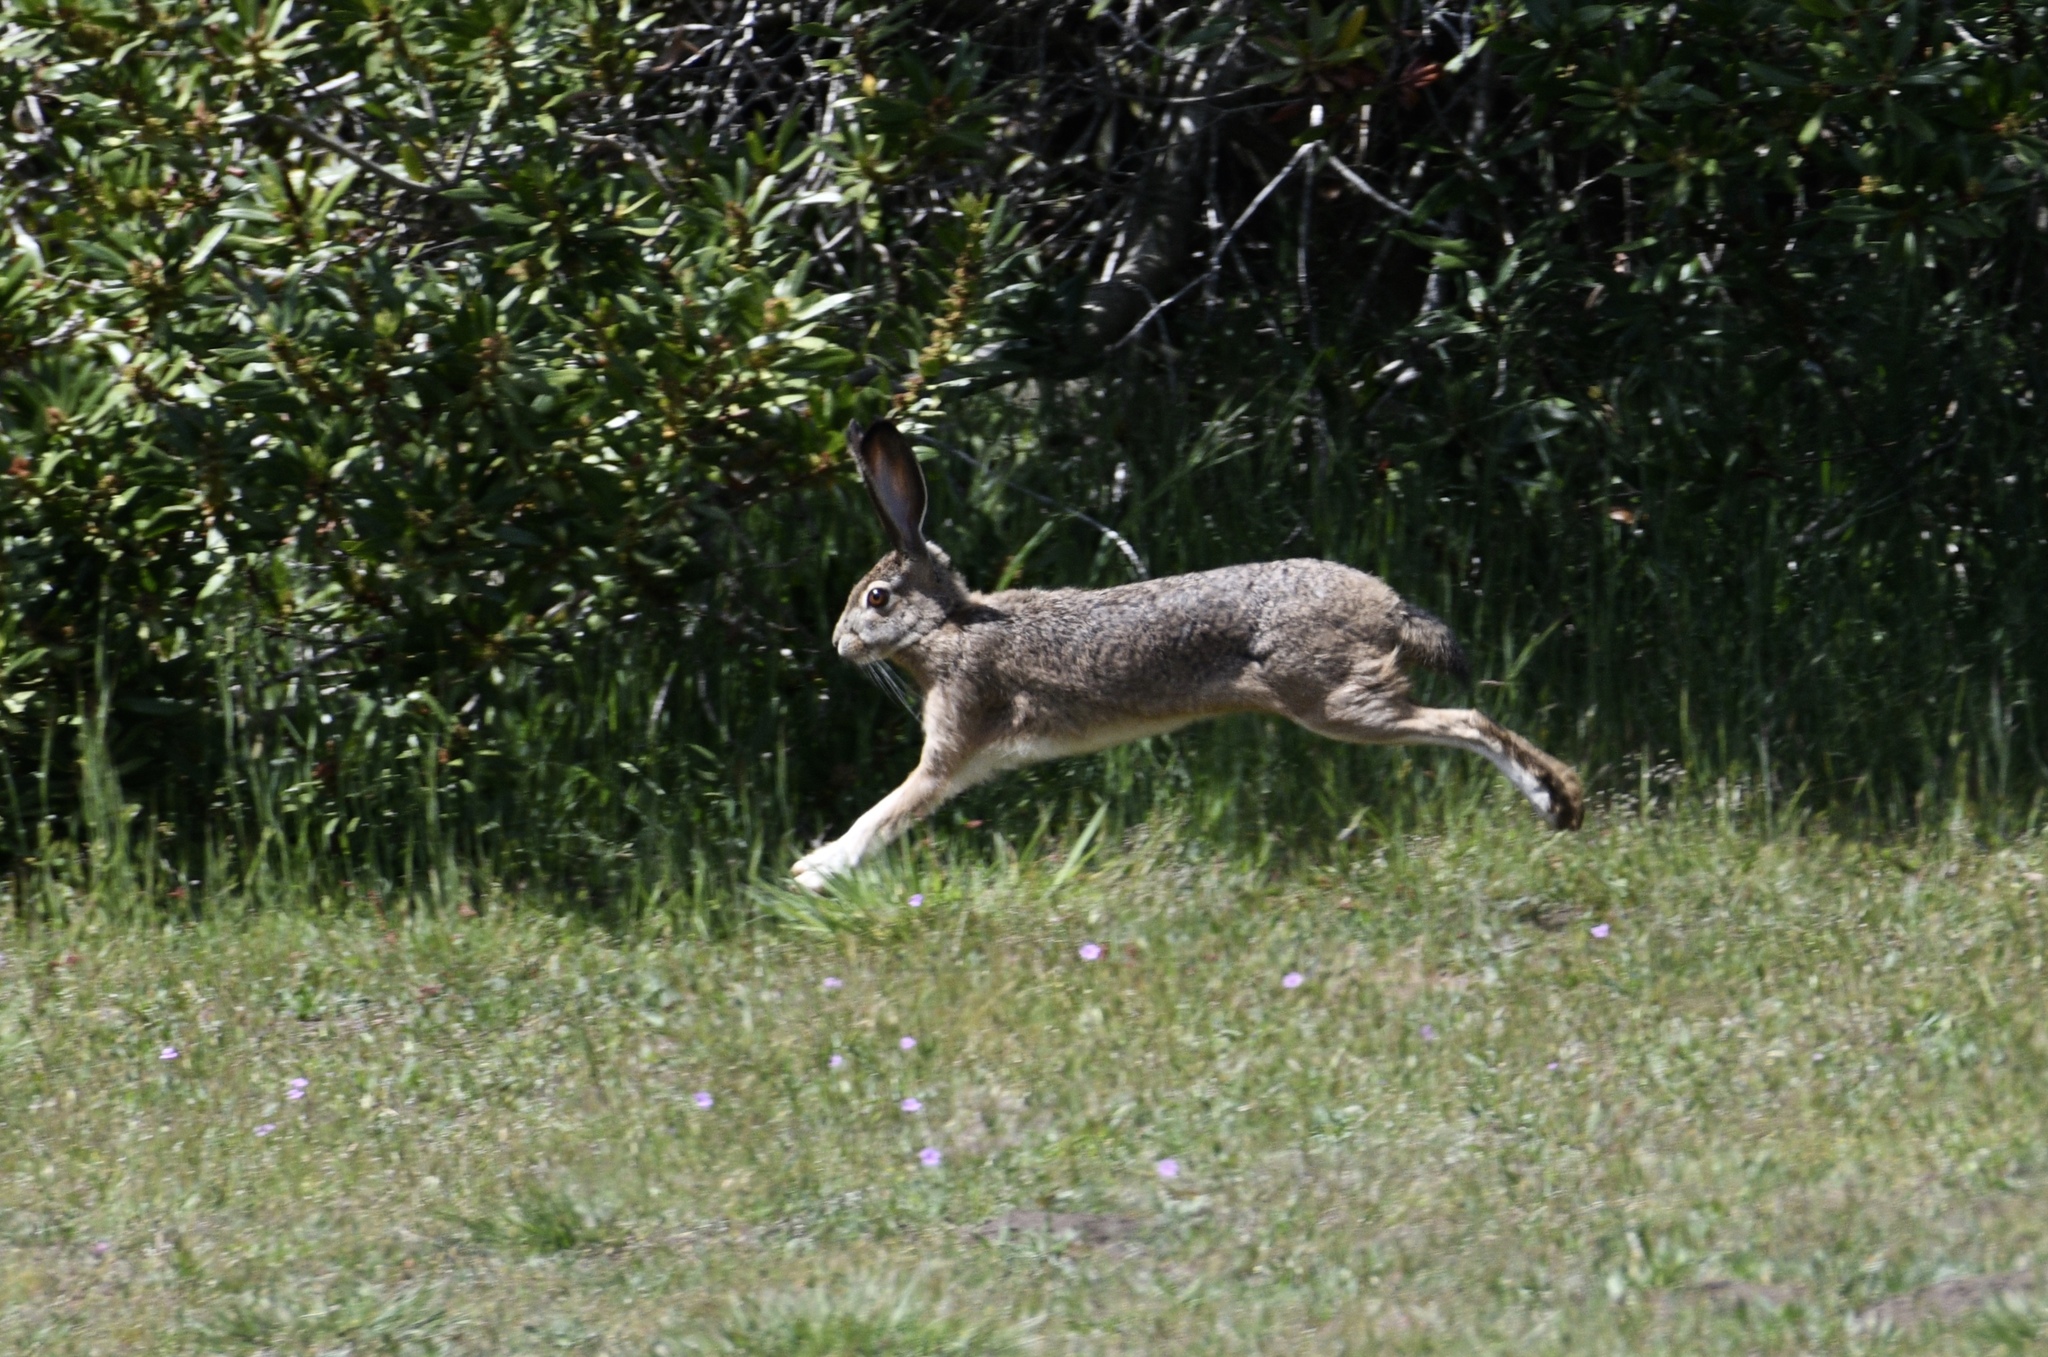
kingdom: Animalia
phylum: Chordata
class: Mammalia
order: Lagomorpha
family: Leporidae
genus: Lepus
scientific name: Lepus californicus
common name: Black-tailed jackrabbit
